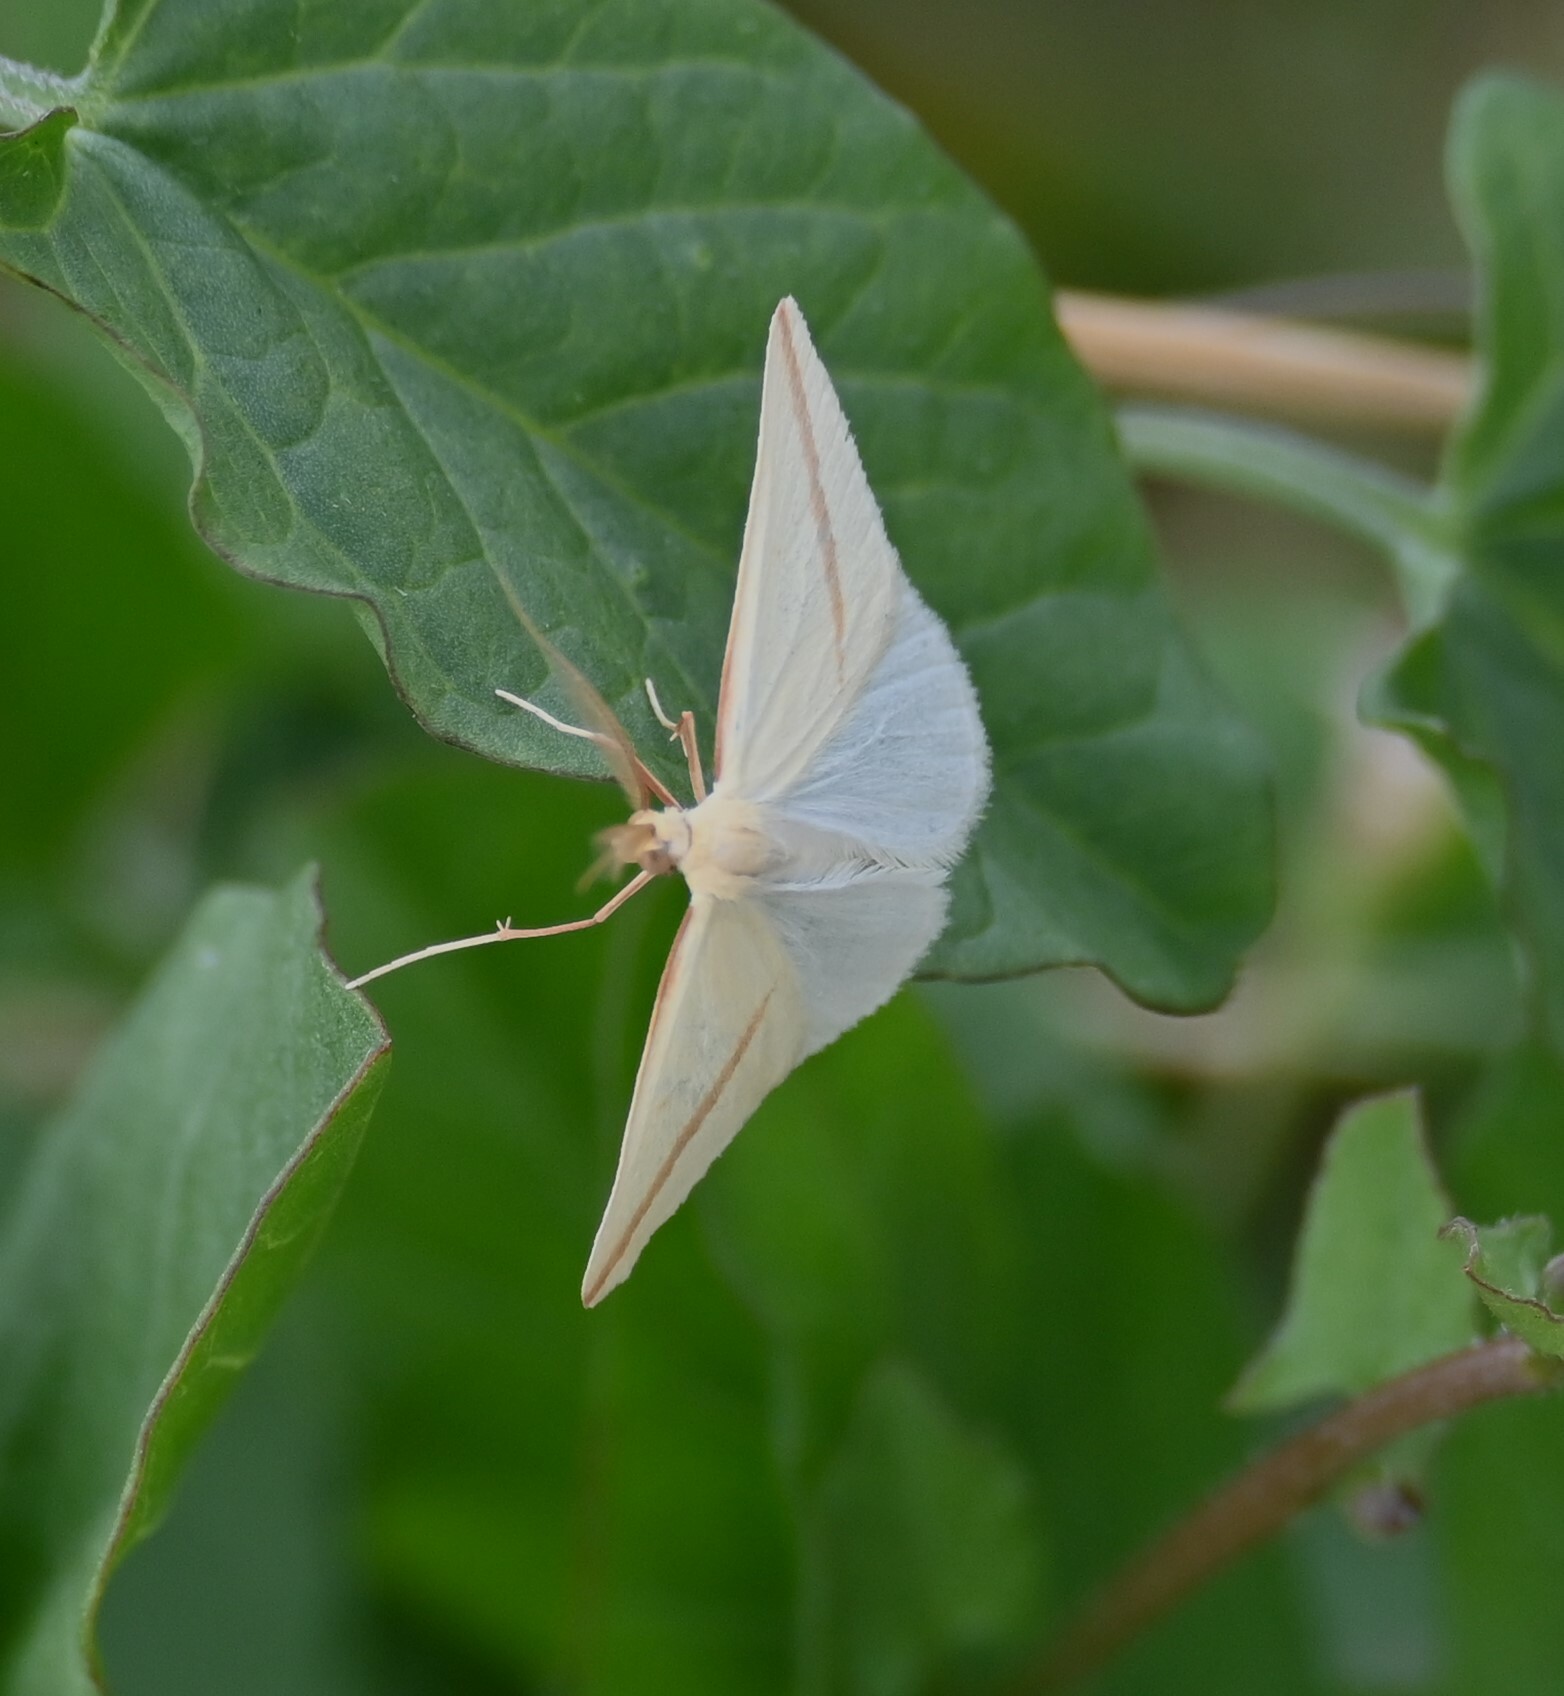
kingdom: Animalia
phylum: Arthropoda
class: Insecta
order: Lepidoptera
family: Geometridae
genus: Rhodometra
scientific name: Rhodometra sacraria
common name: Vestal
